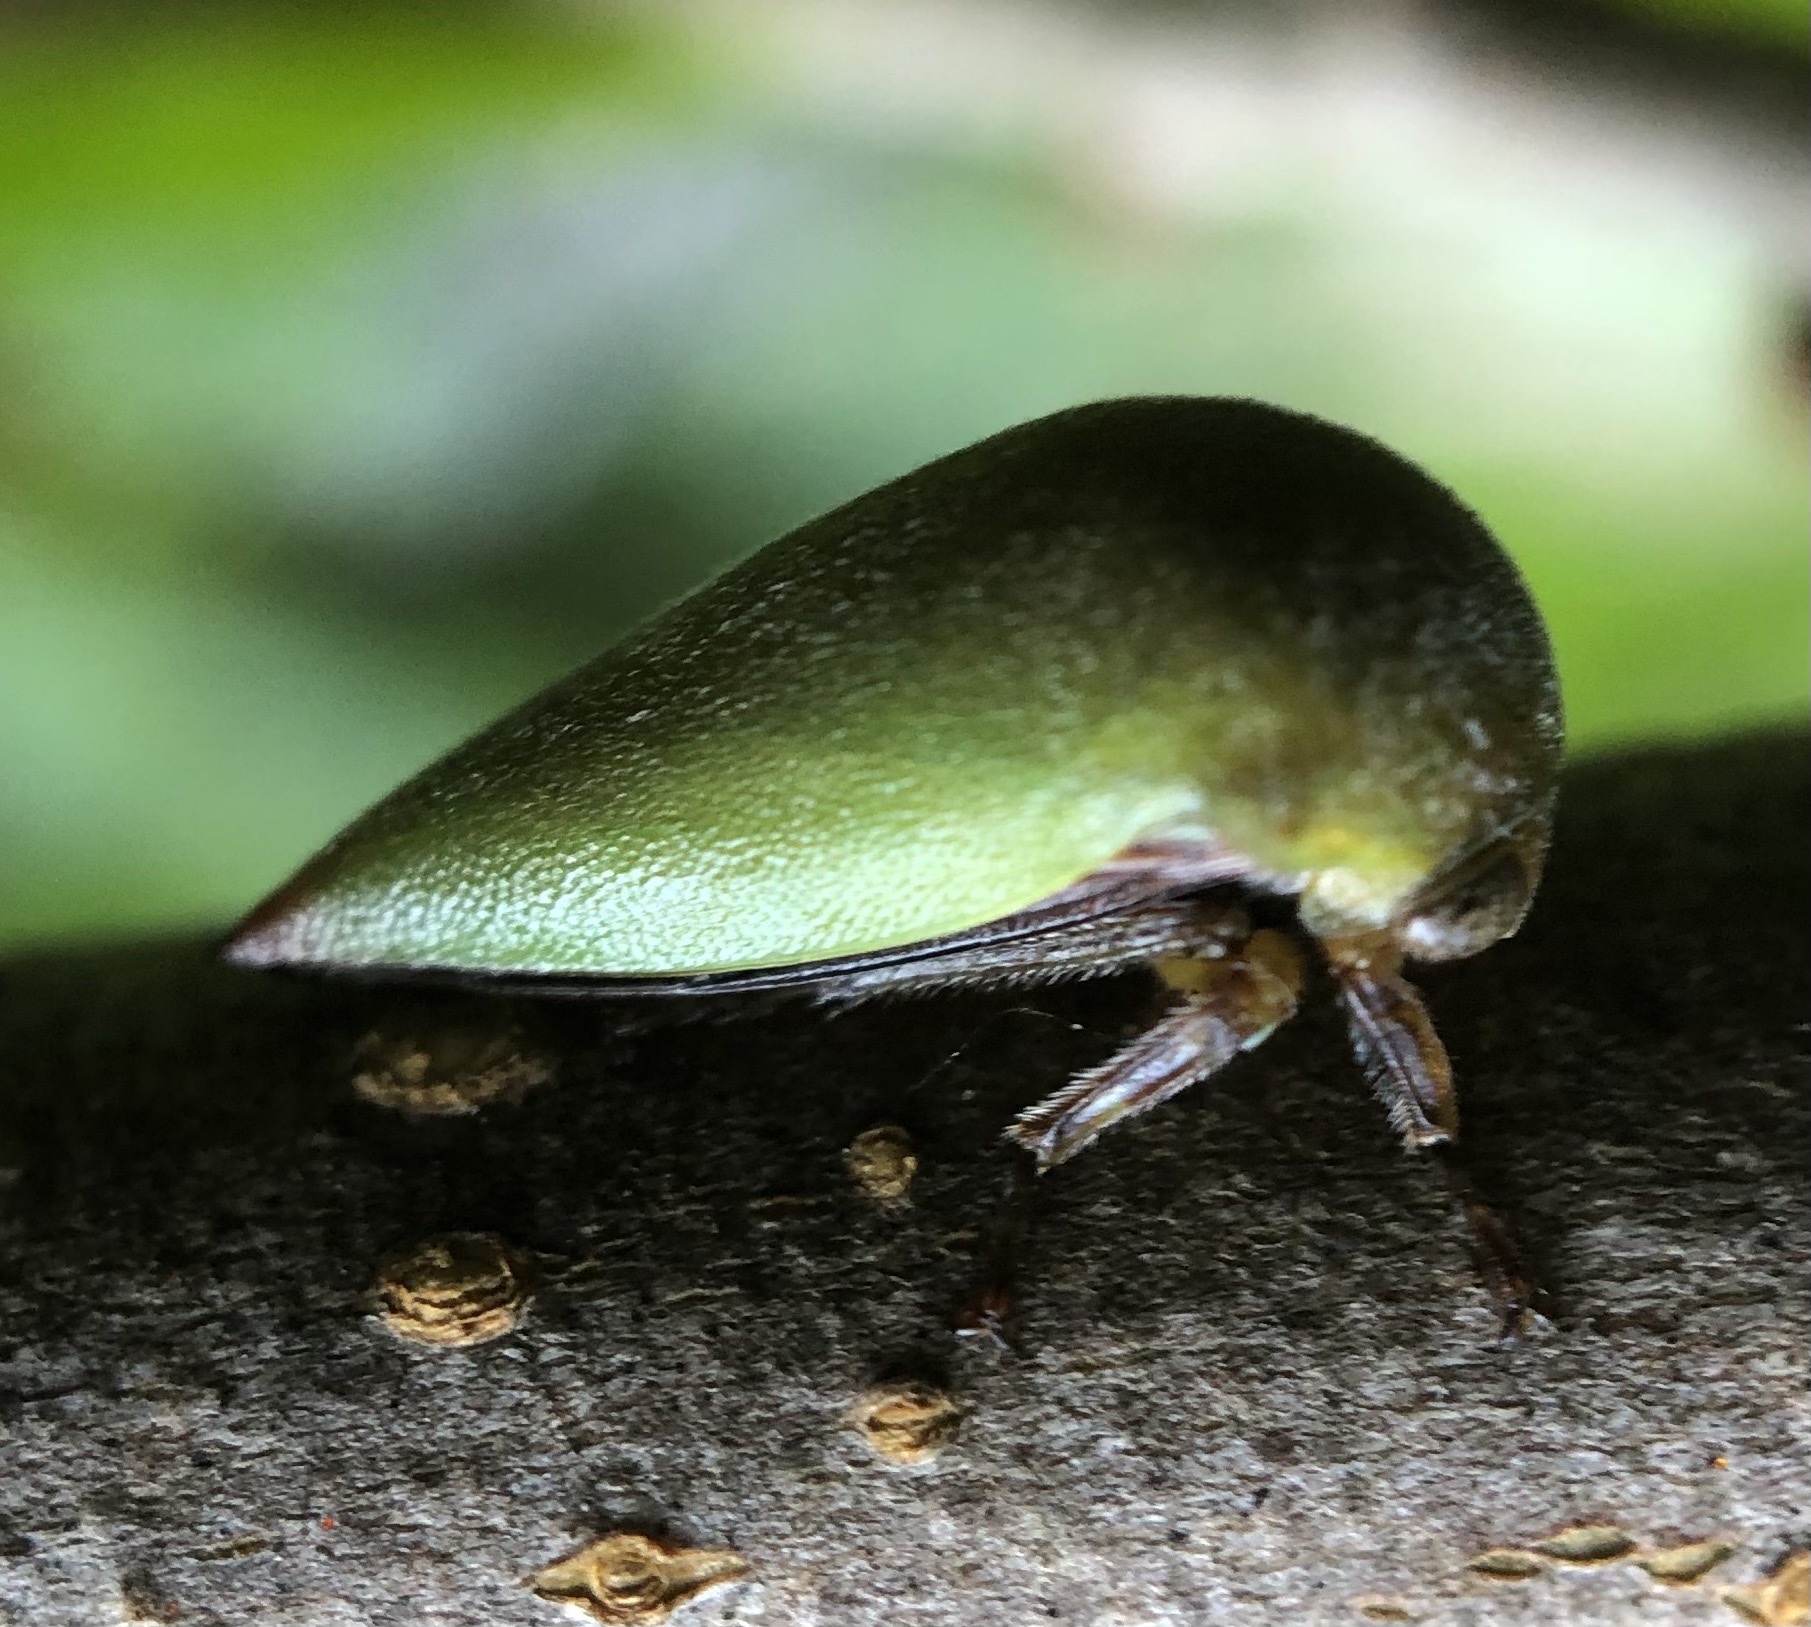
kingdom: Animalia
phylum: Arthropoda
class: Insecta
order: Hemiptera
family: Membracidae
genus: Hebetica
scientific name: Hebetica
